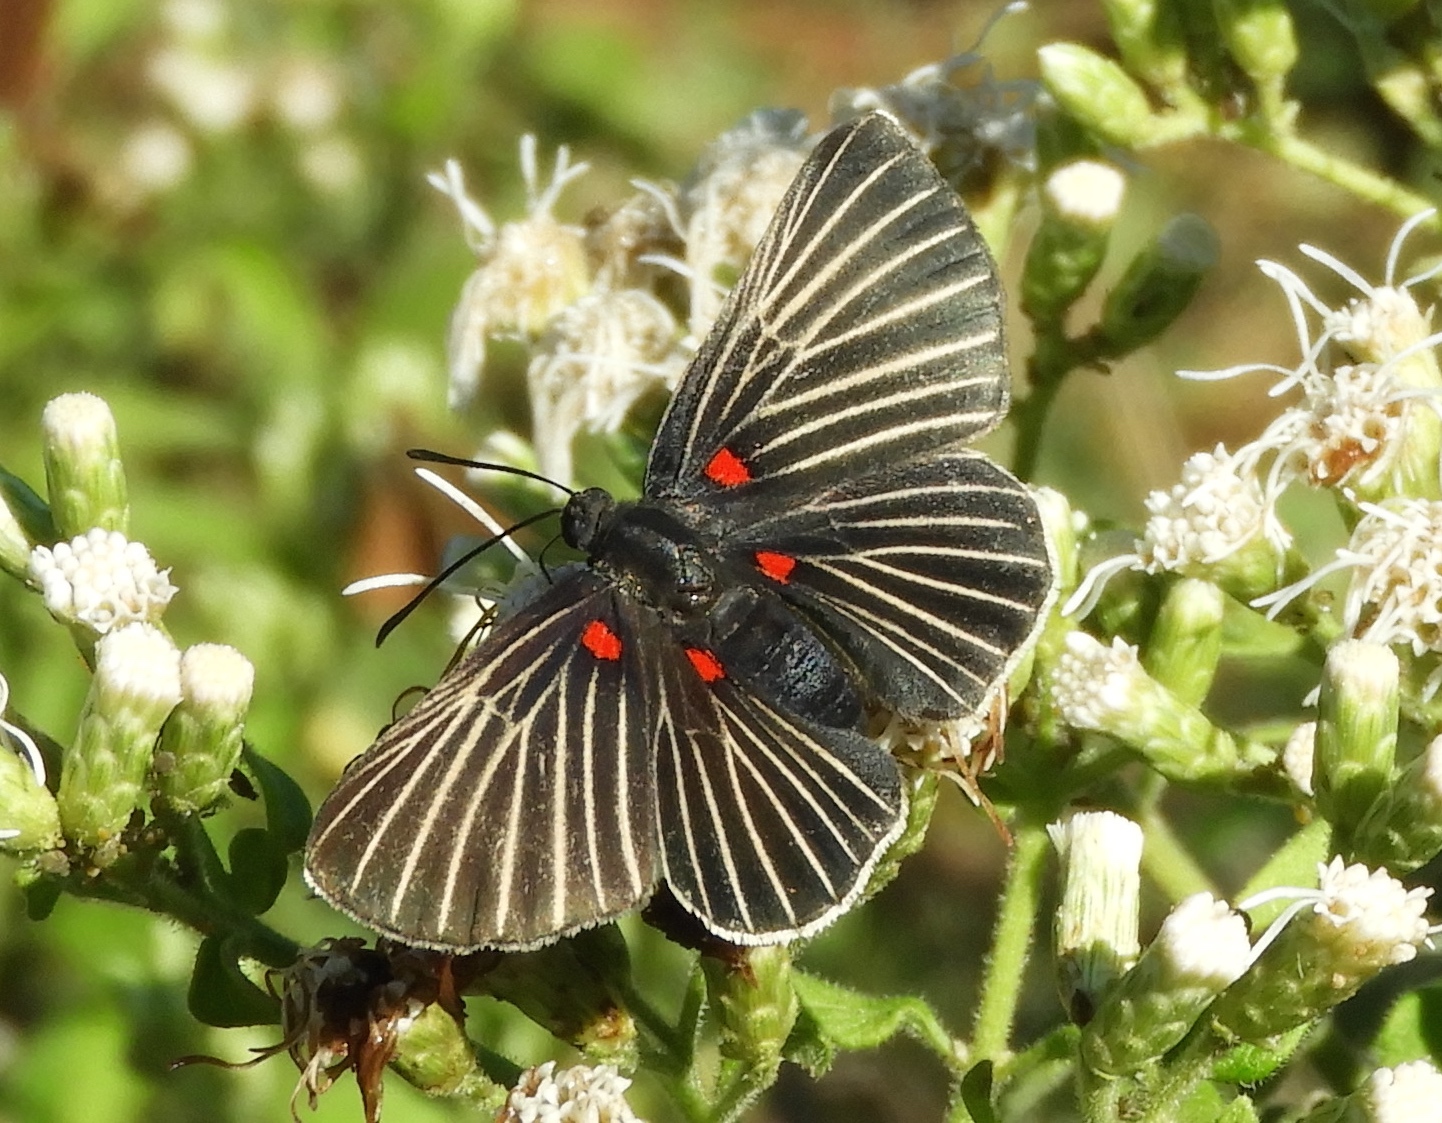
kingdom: Animalia
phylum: Arthropoda
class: Insecta
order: Lepidoptera
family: Lycaenidae
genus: Melanis
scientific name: Melanis
